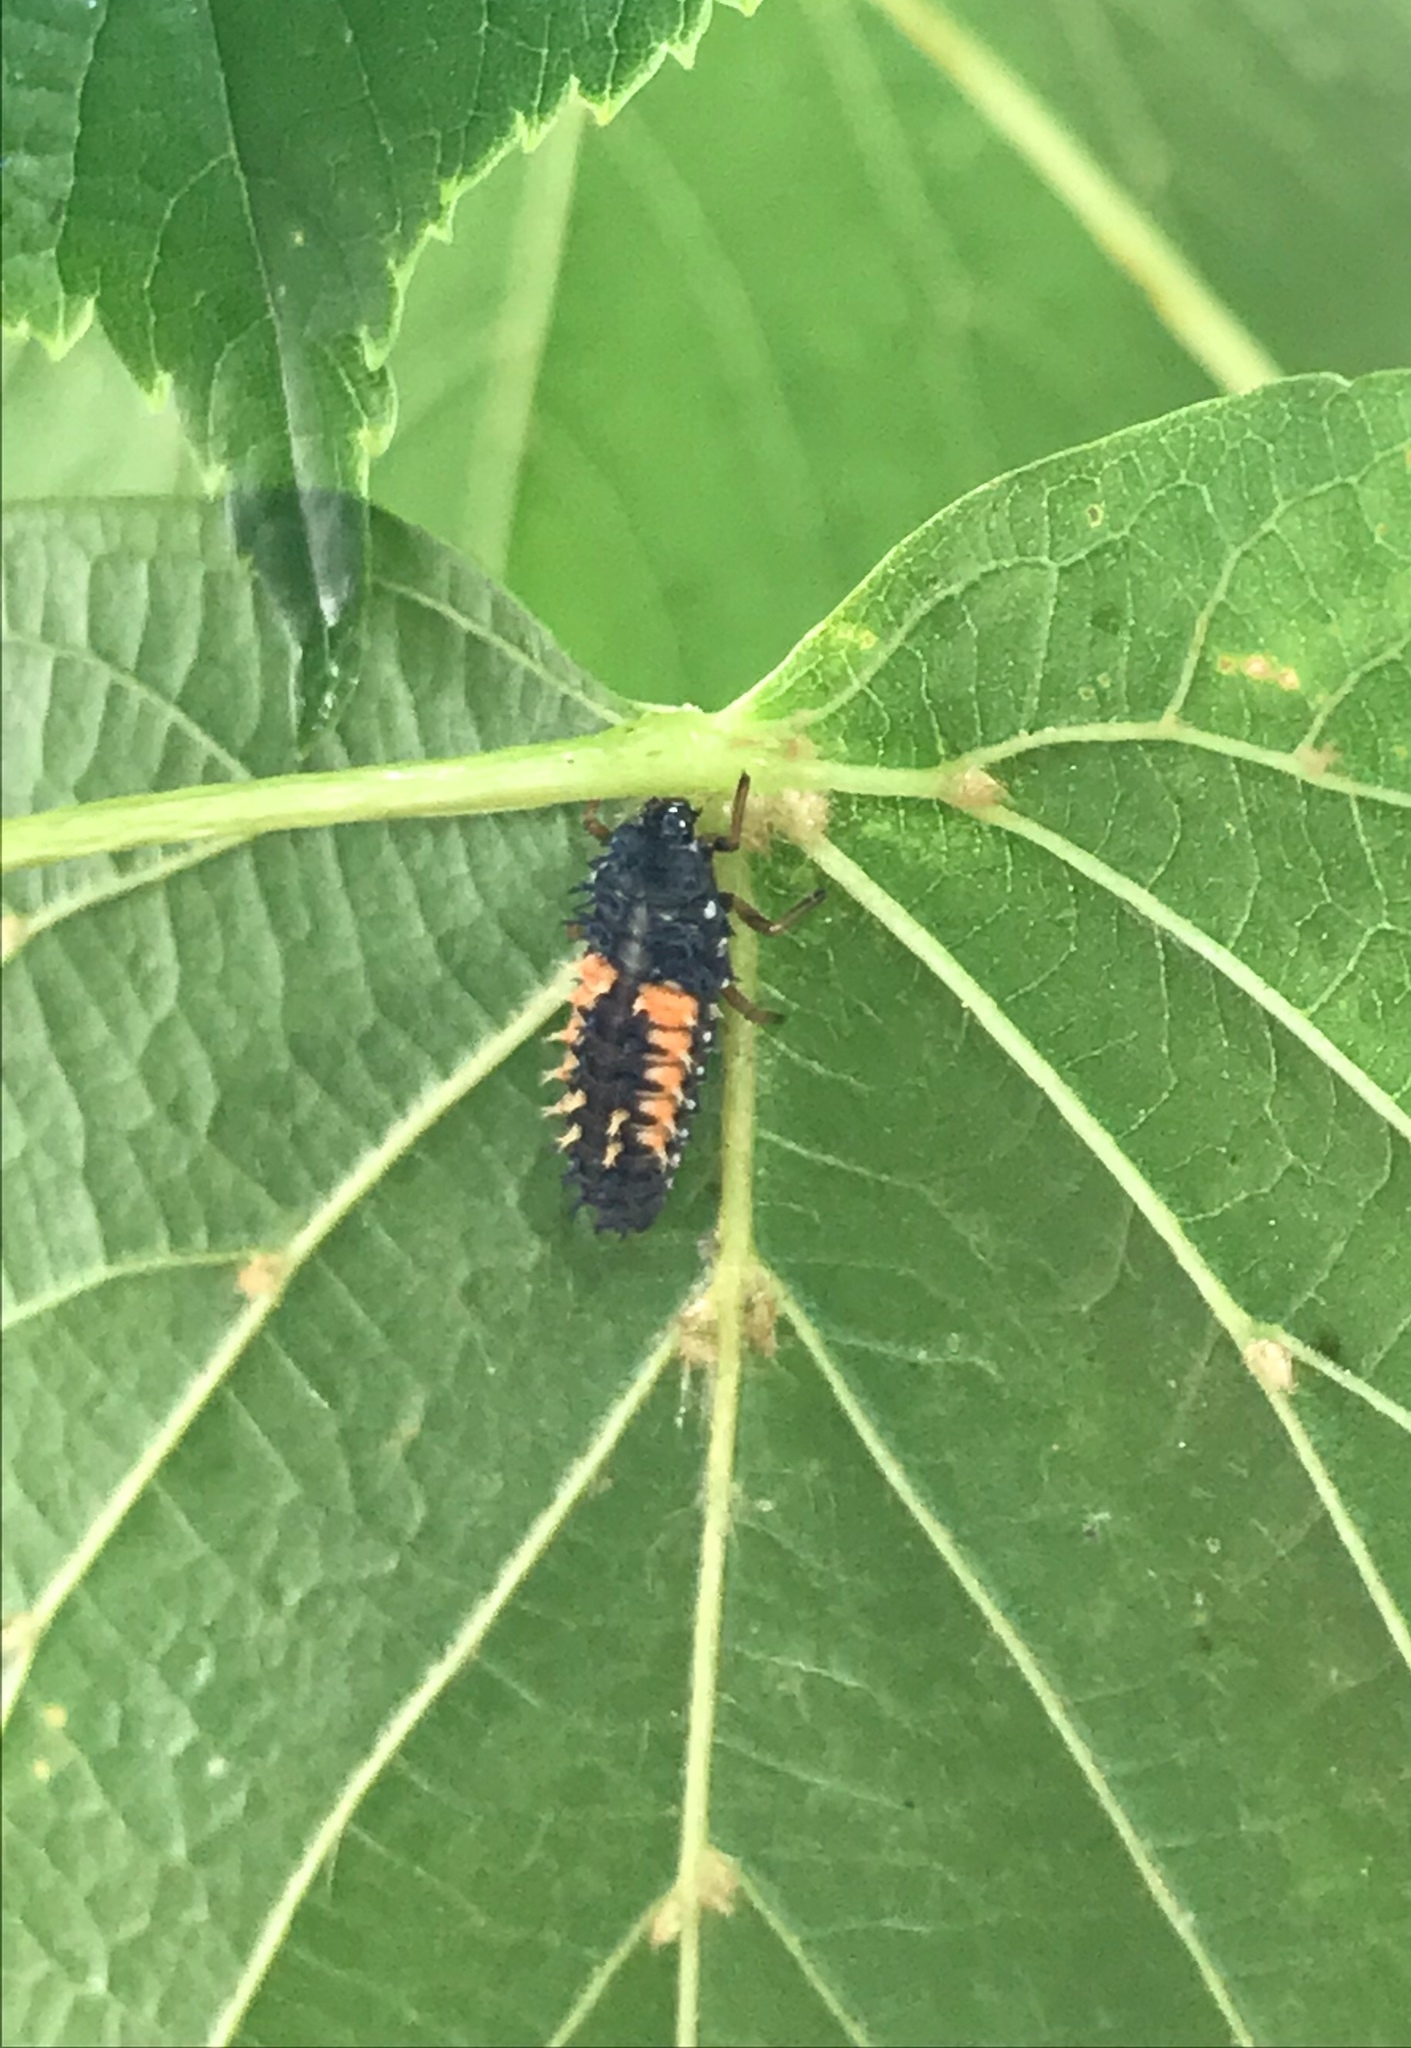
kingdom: Animalia
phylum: Arthropoda
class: Insecta
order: Coleoptera
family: Coccinellidae
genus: Harmonia
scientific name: Harmonia axyridis
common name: Harlequin ladybird
